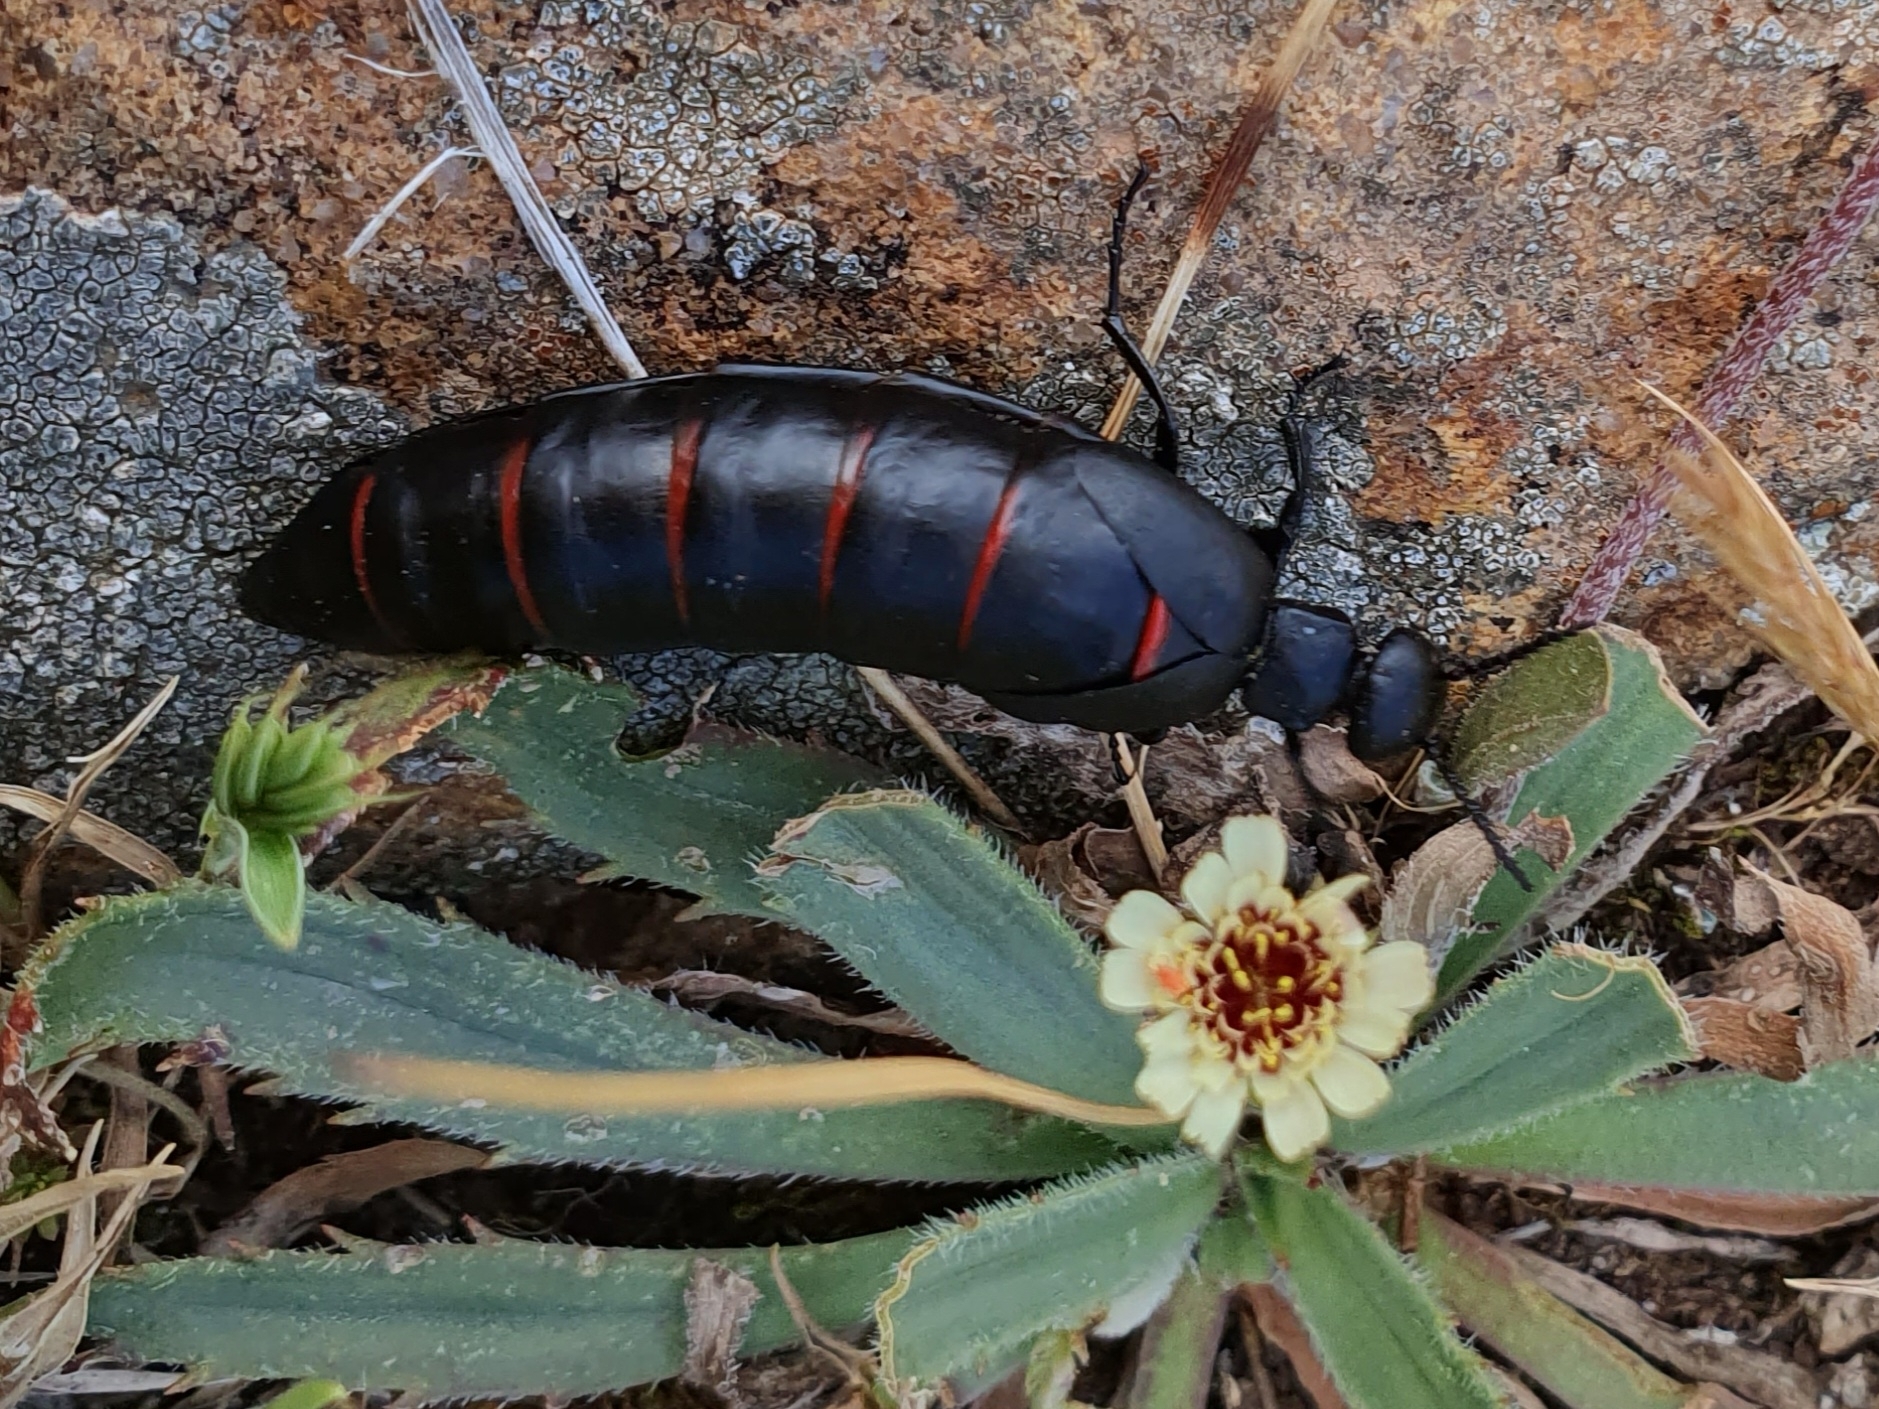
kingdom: Animalia
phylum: Arthropoda
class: Insecta
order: Coleoptera
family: Meloidae
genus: Berberomeloe
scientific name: Berberomeloe majalis
